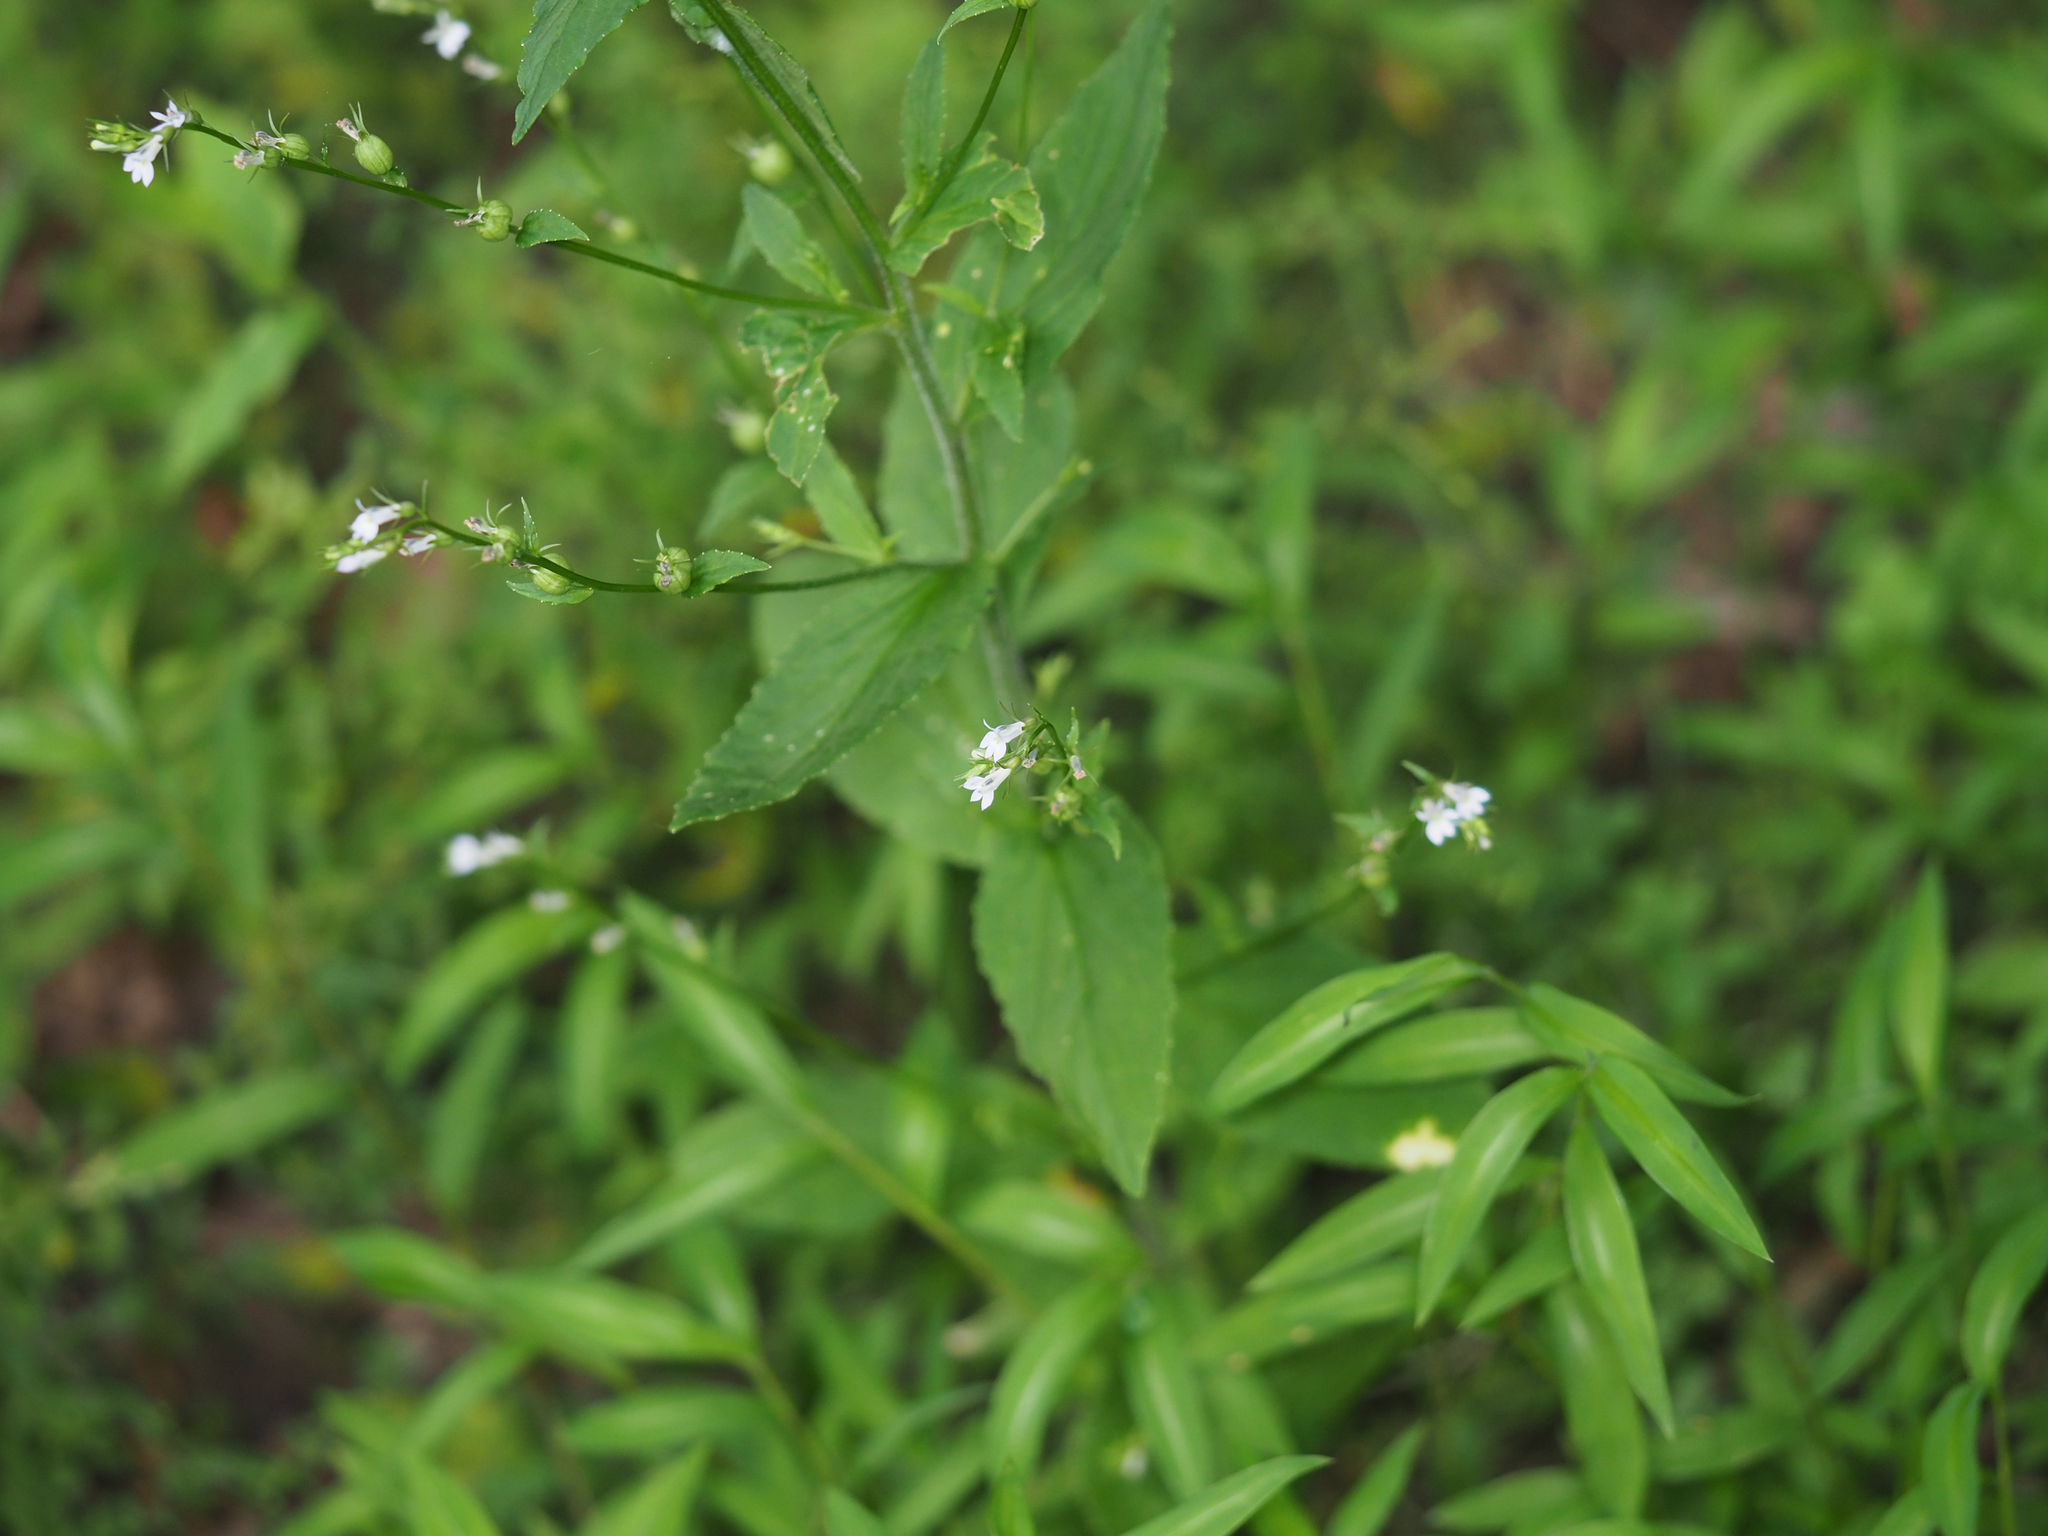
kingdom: Plantae
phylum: Tracheophyta
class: Magnoliopsida
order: Asterales
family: Campanulaceae
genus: Lobelia
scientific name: Lobelia inflata
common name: Indian tobacco
